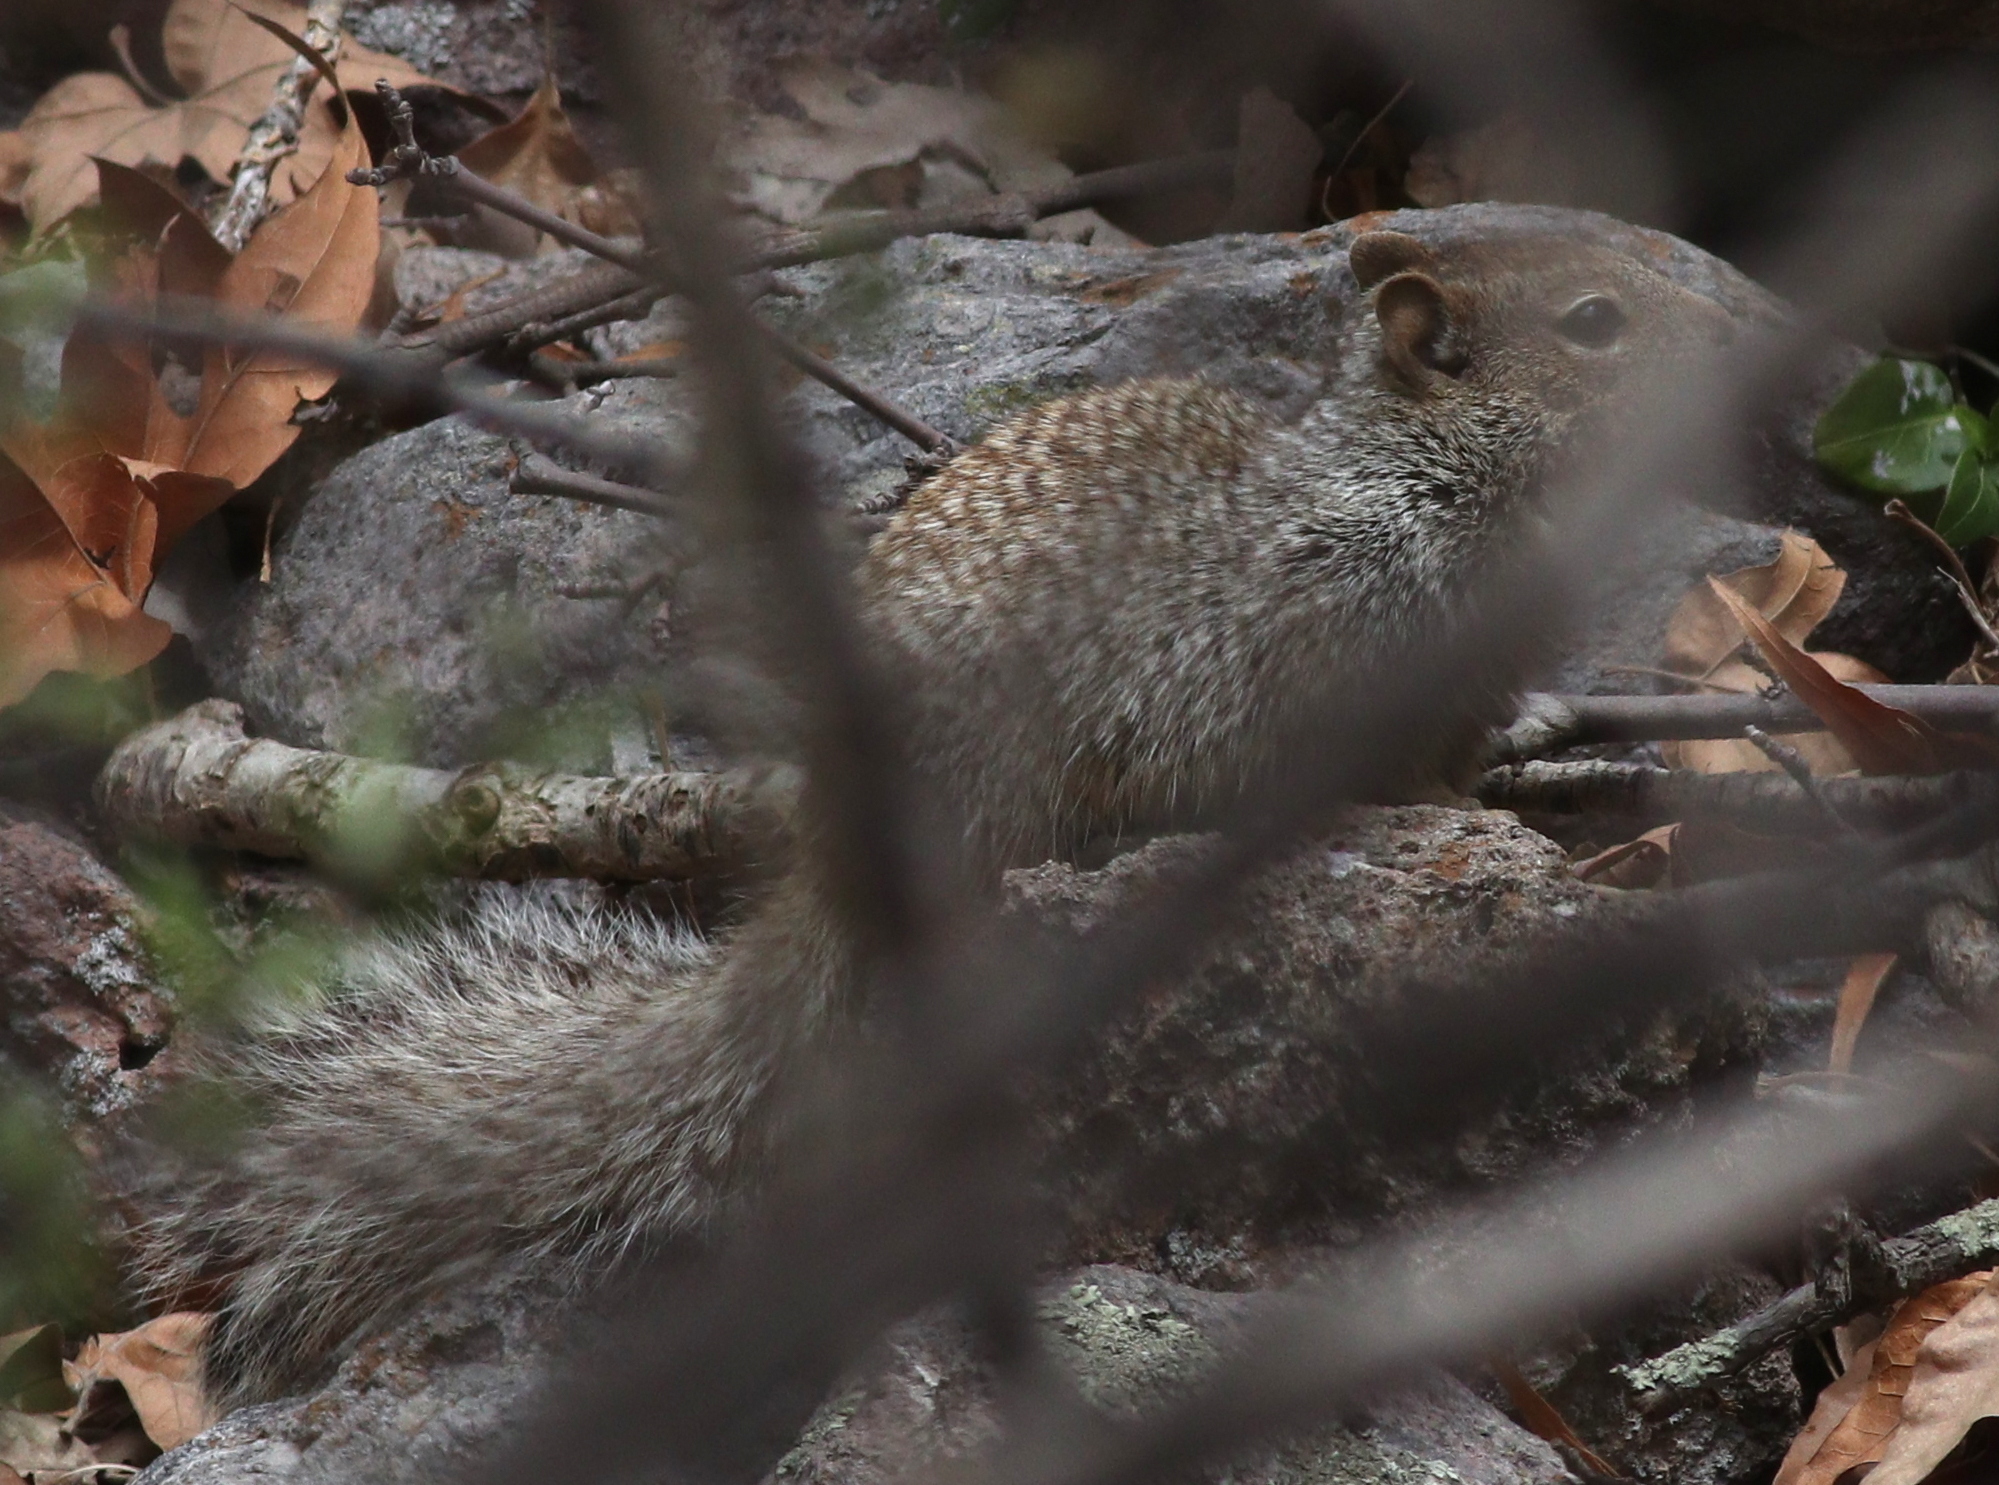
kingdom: Animalia
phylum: Chordata
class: Mammalia
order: Rodentia
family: Sciuridae
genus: Otospermophilus
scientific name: Otospermophilus variegatus
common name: Rock squirrel
